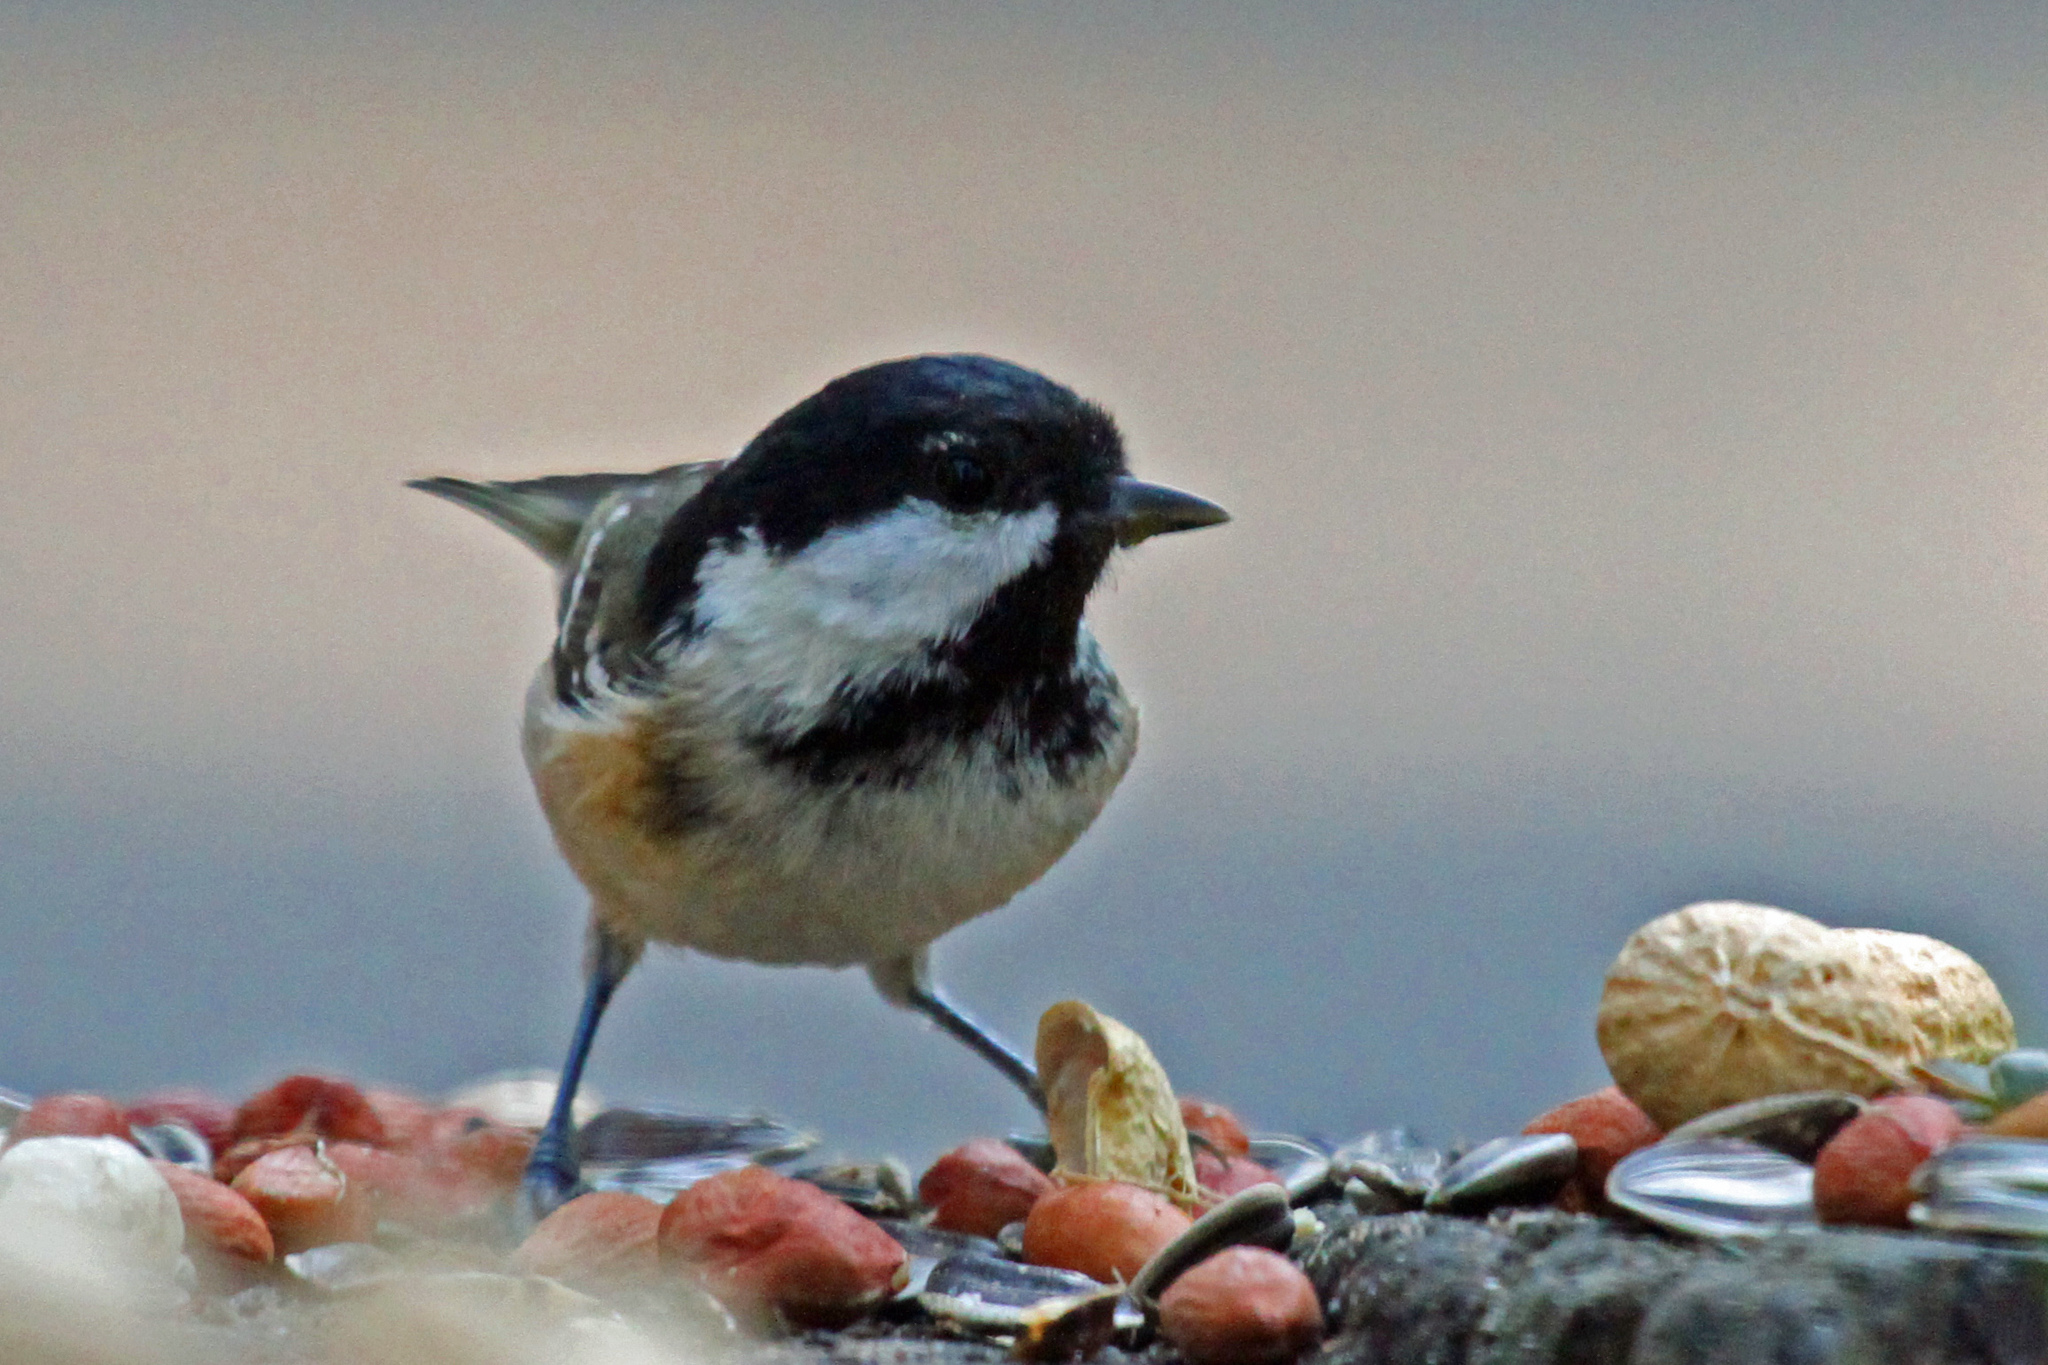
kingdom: Animalia
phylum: Chordata
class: Aves
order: Passeriformes
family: Paridae
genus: Periparus
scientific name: Periparus ater
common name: Coal tit
